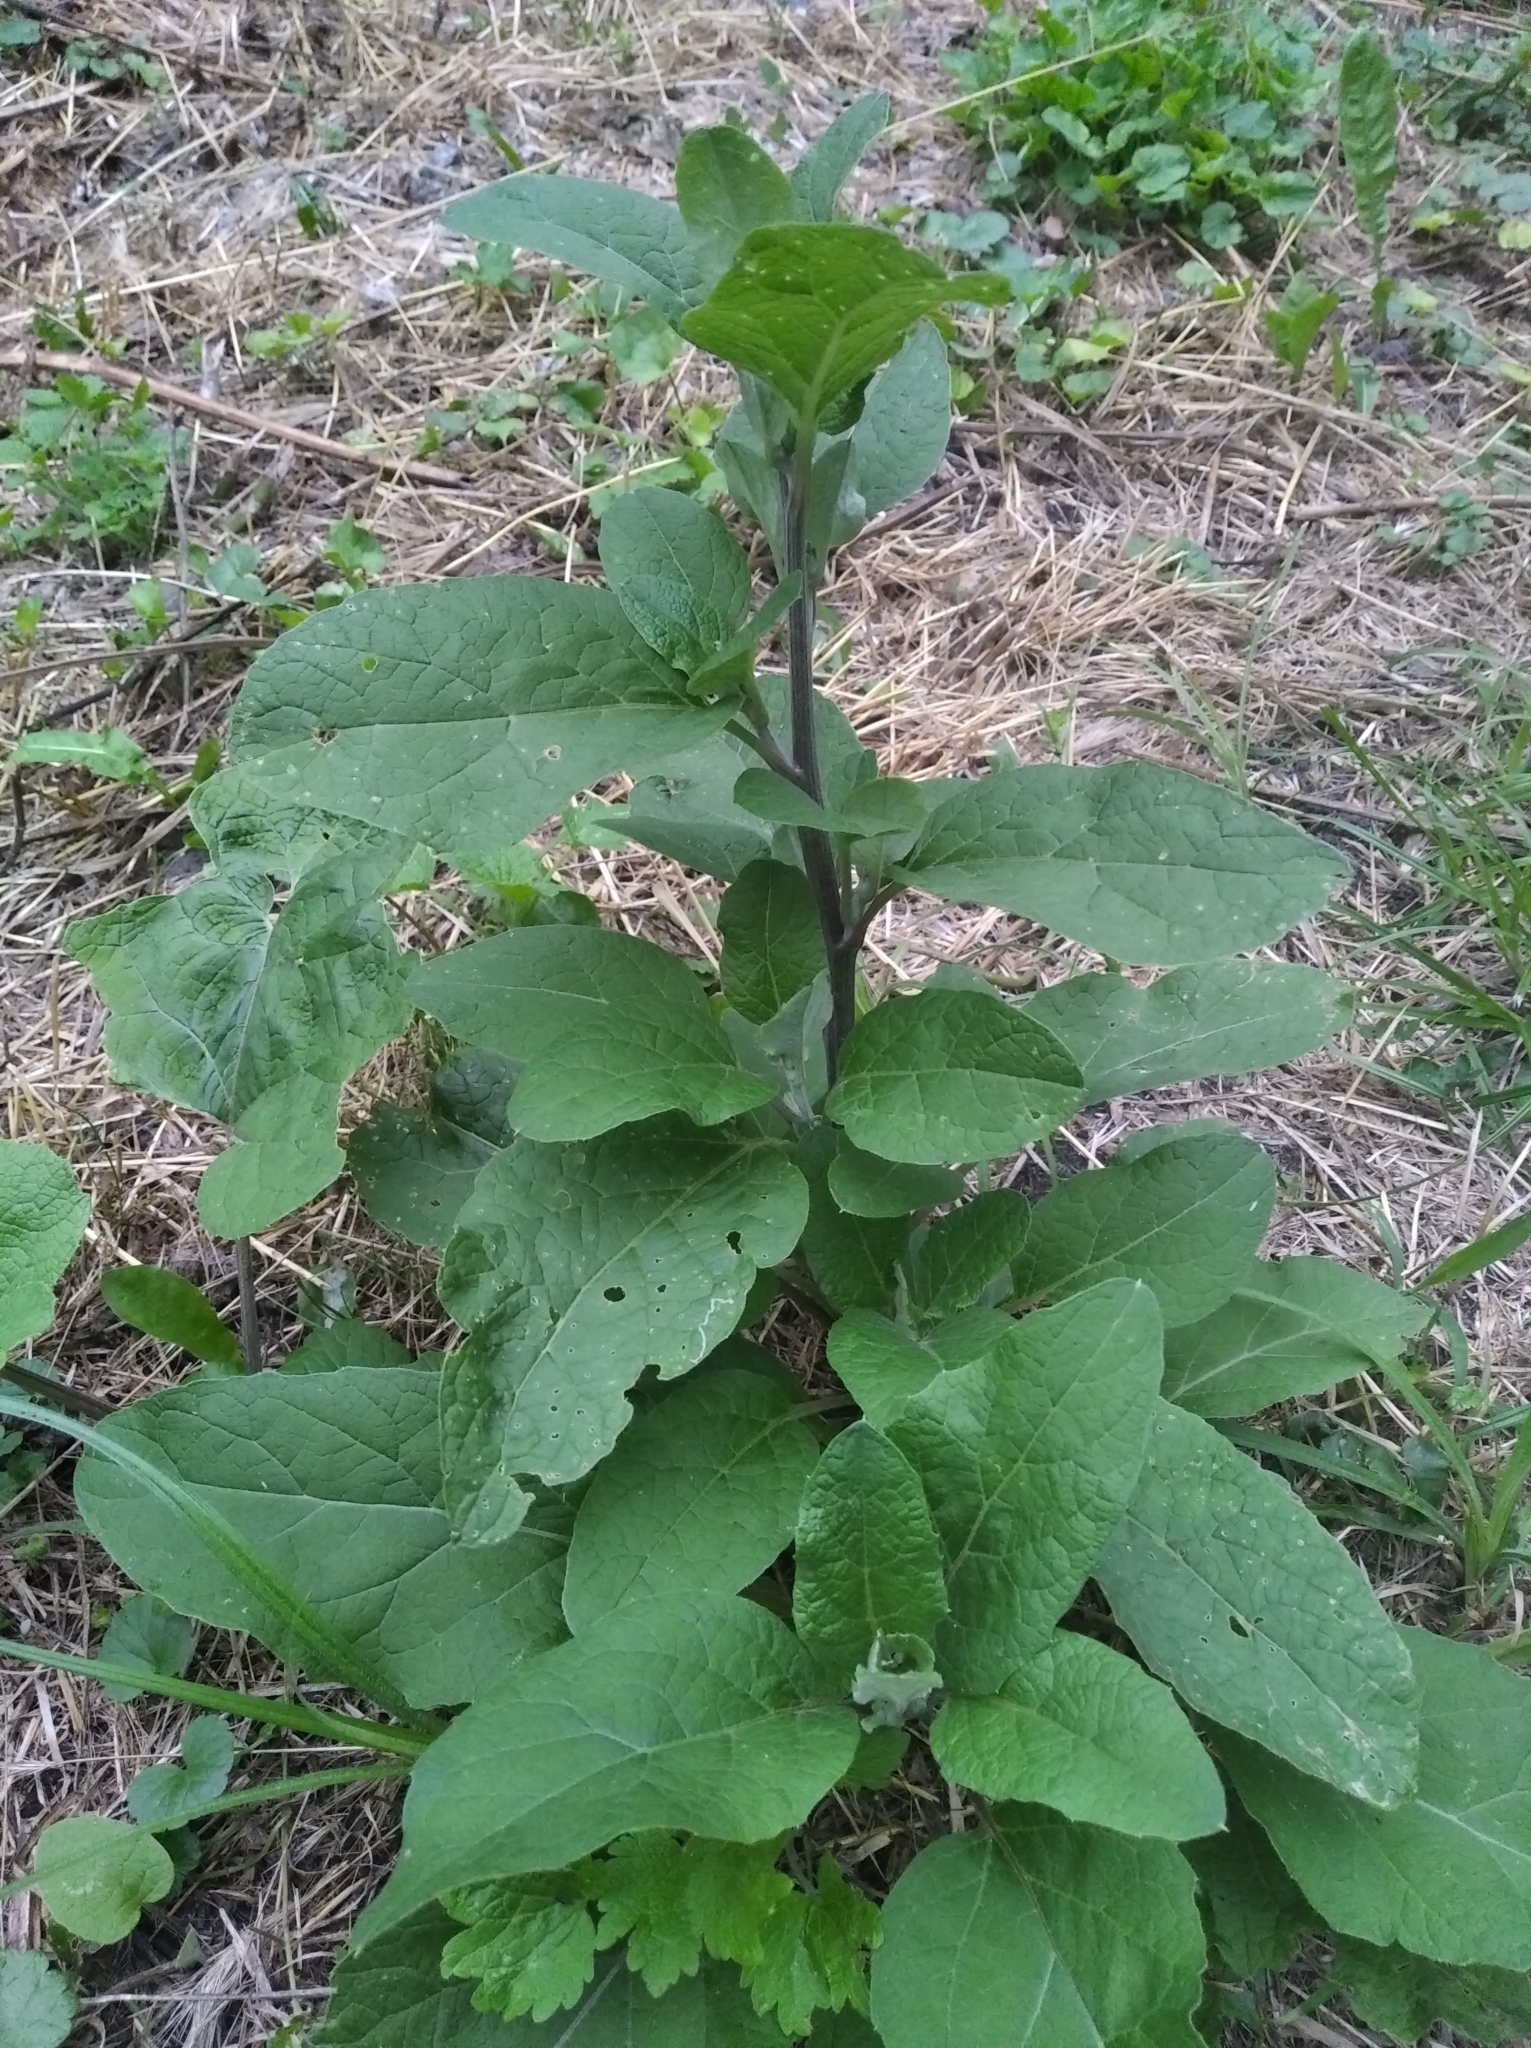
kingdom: Plantae
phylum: Tracheophyta
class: Magnoliopsida
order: Asterales
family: Asteraceae
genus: Arctium
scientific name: Arctium lappa
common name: Greater burdock
